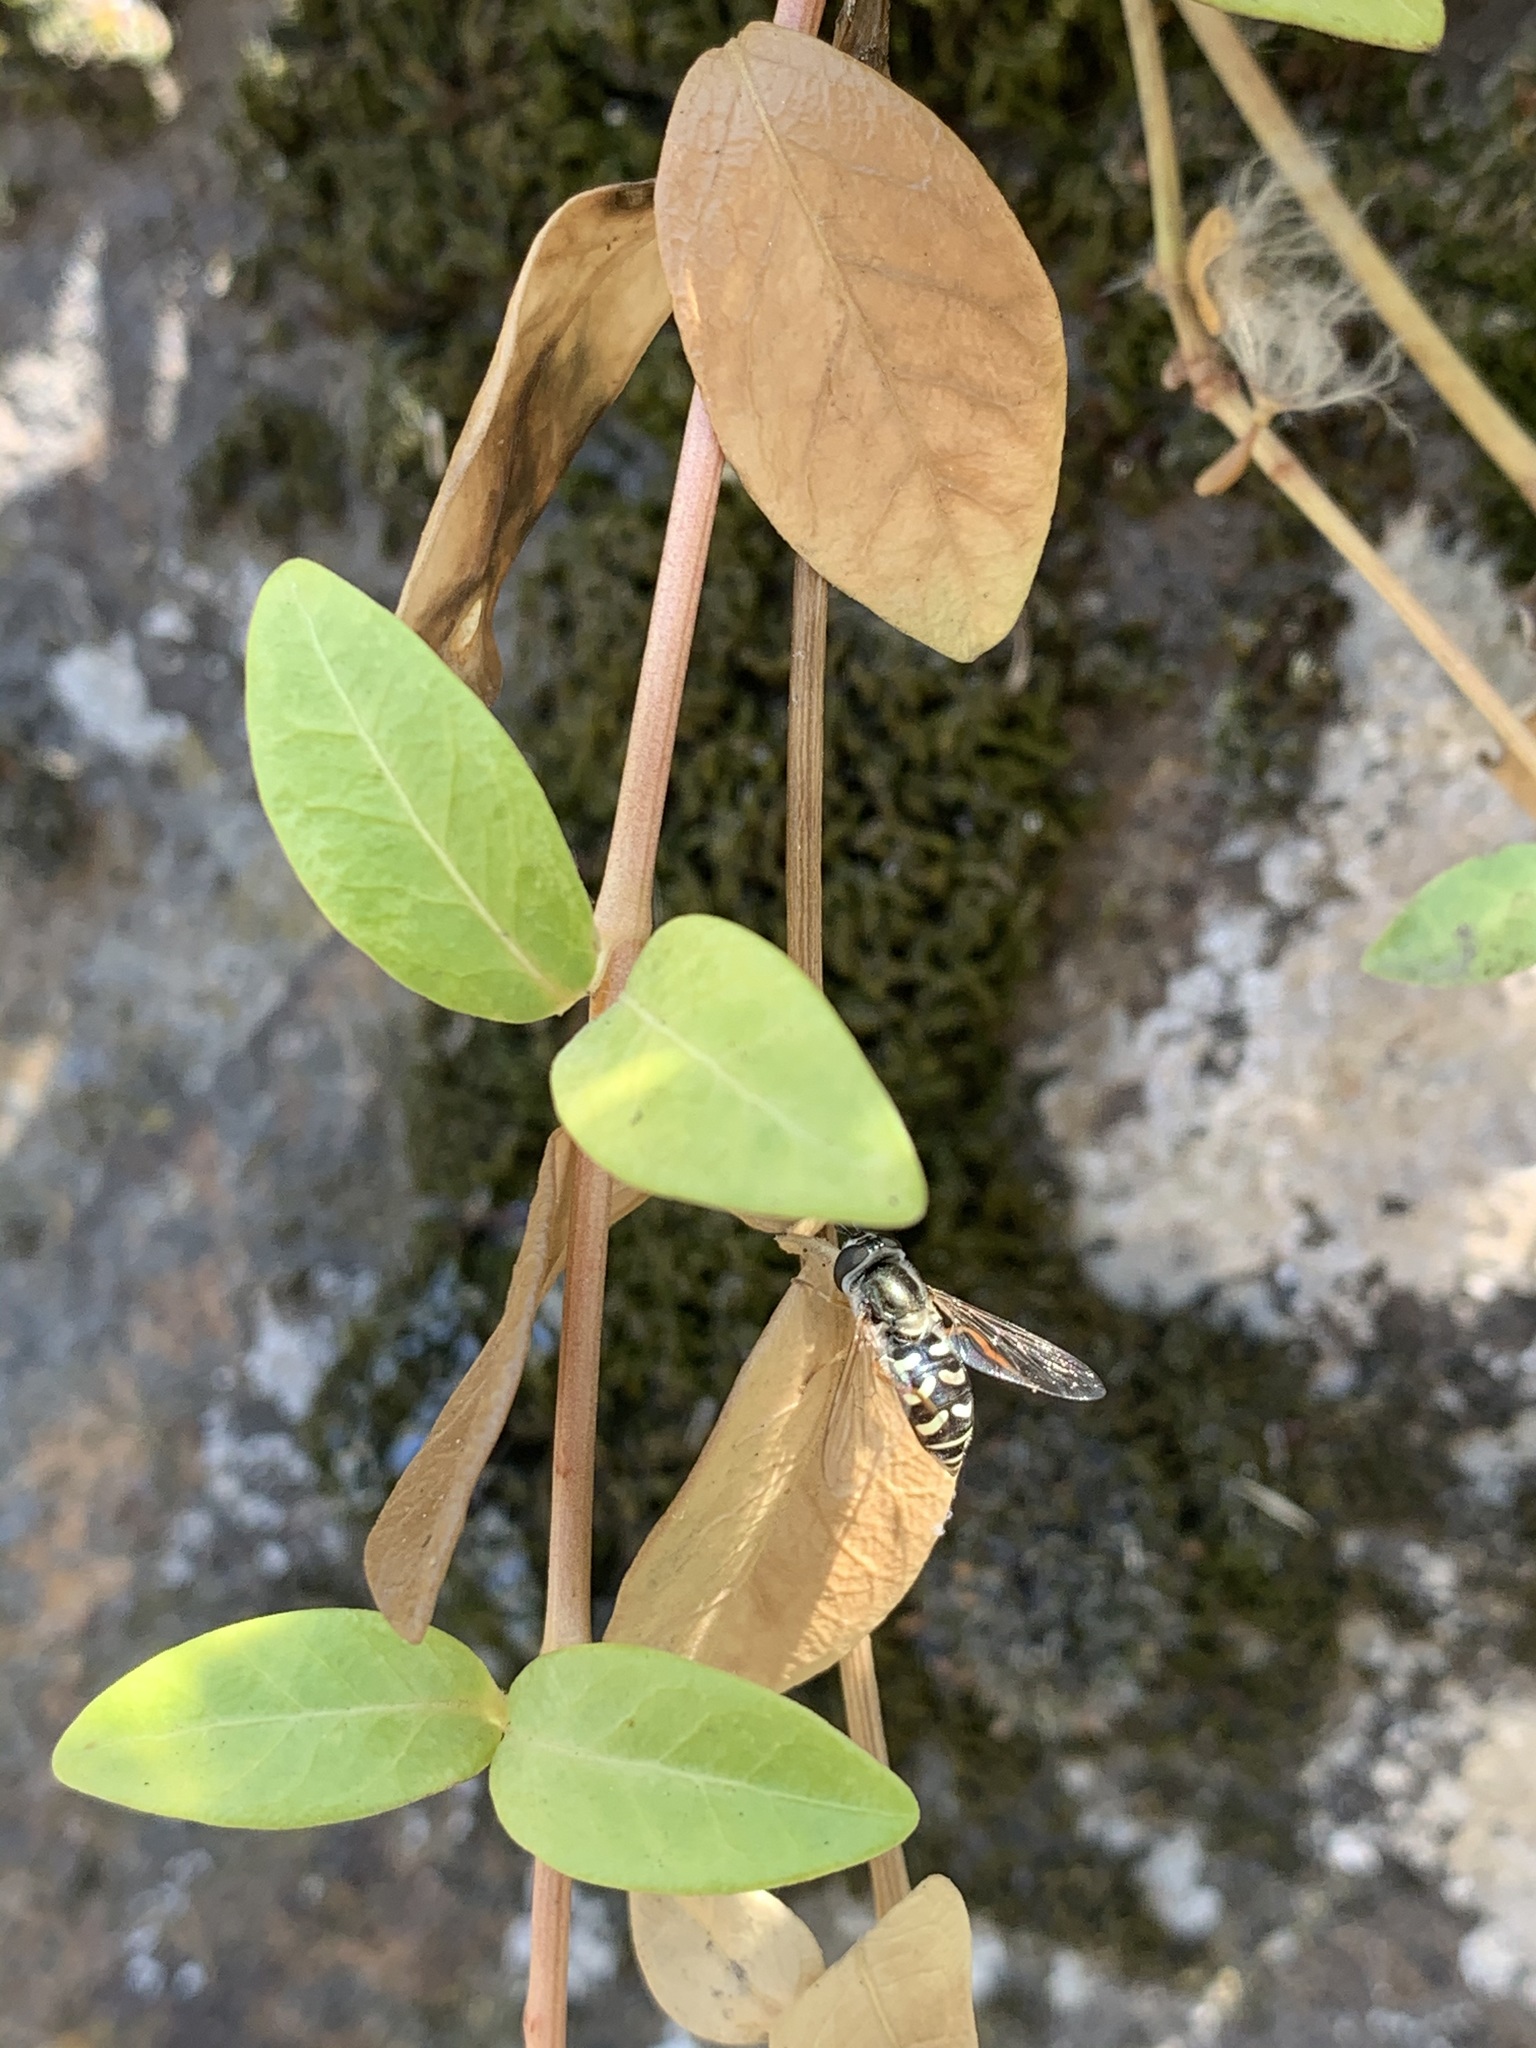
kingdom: Animalia
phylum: Arthropoda
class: Insecta
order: Diptera
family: Syrphidae
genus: Eupeodes
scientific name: Eupeodes volucris
